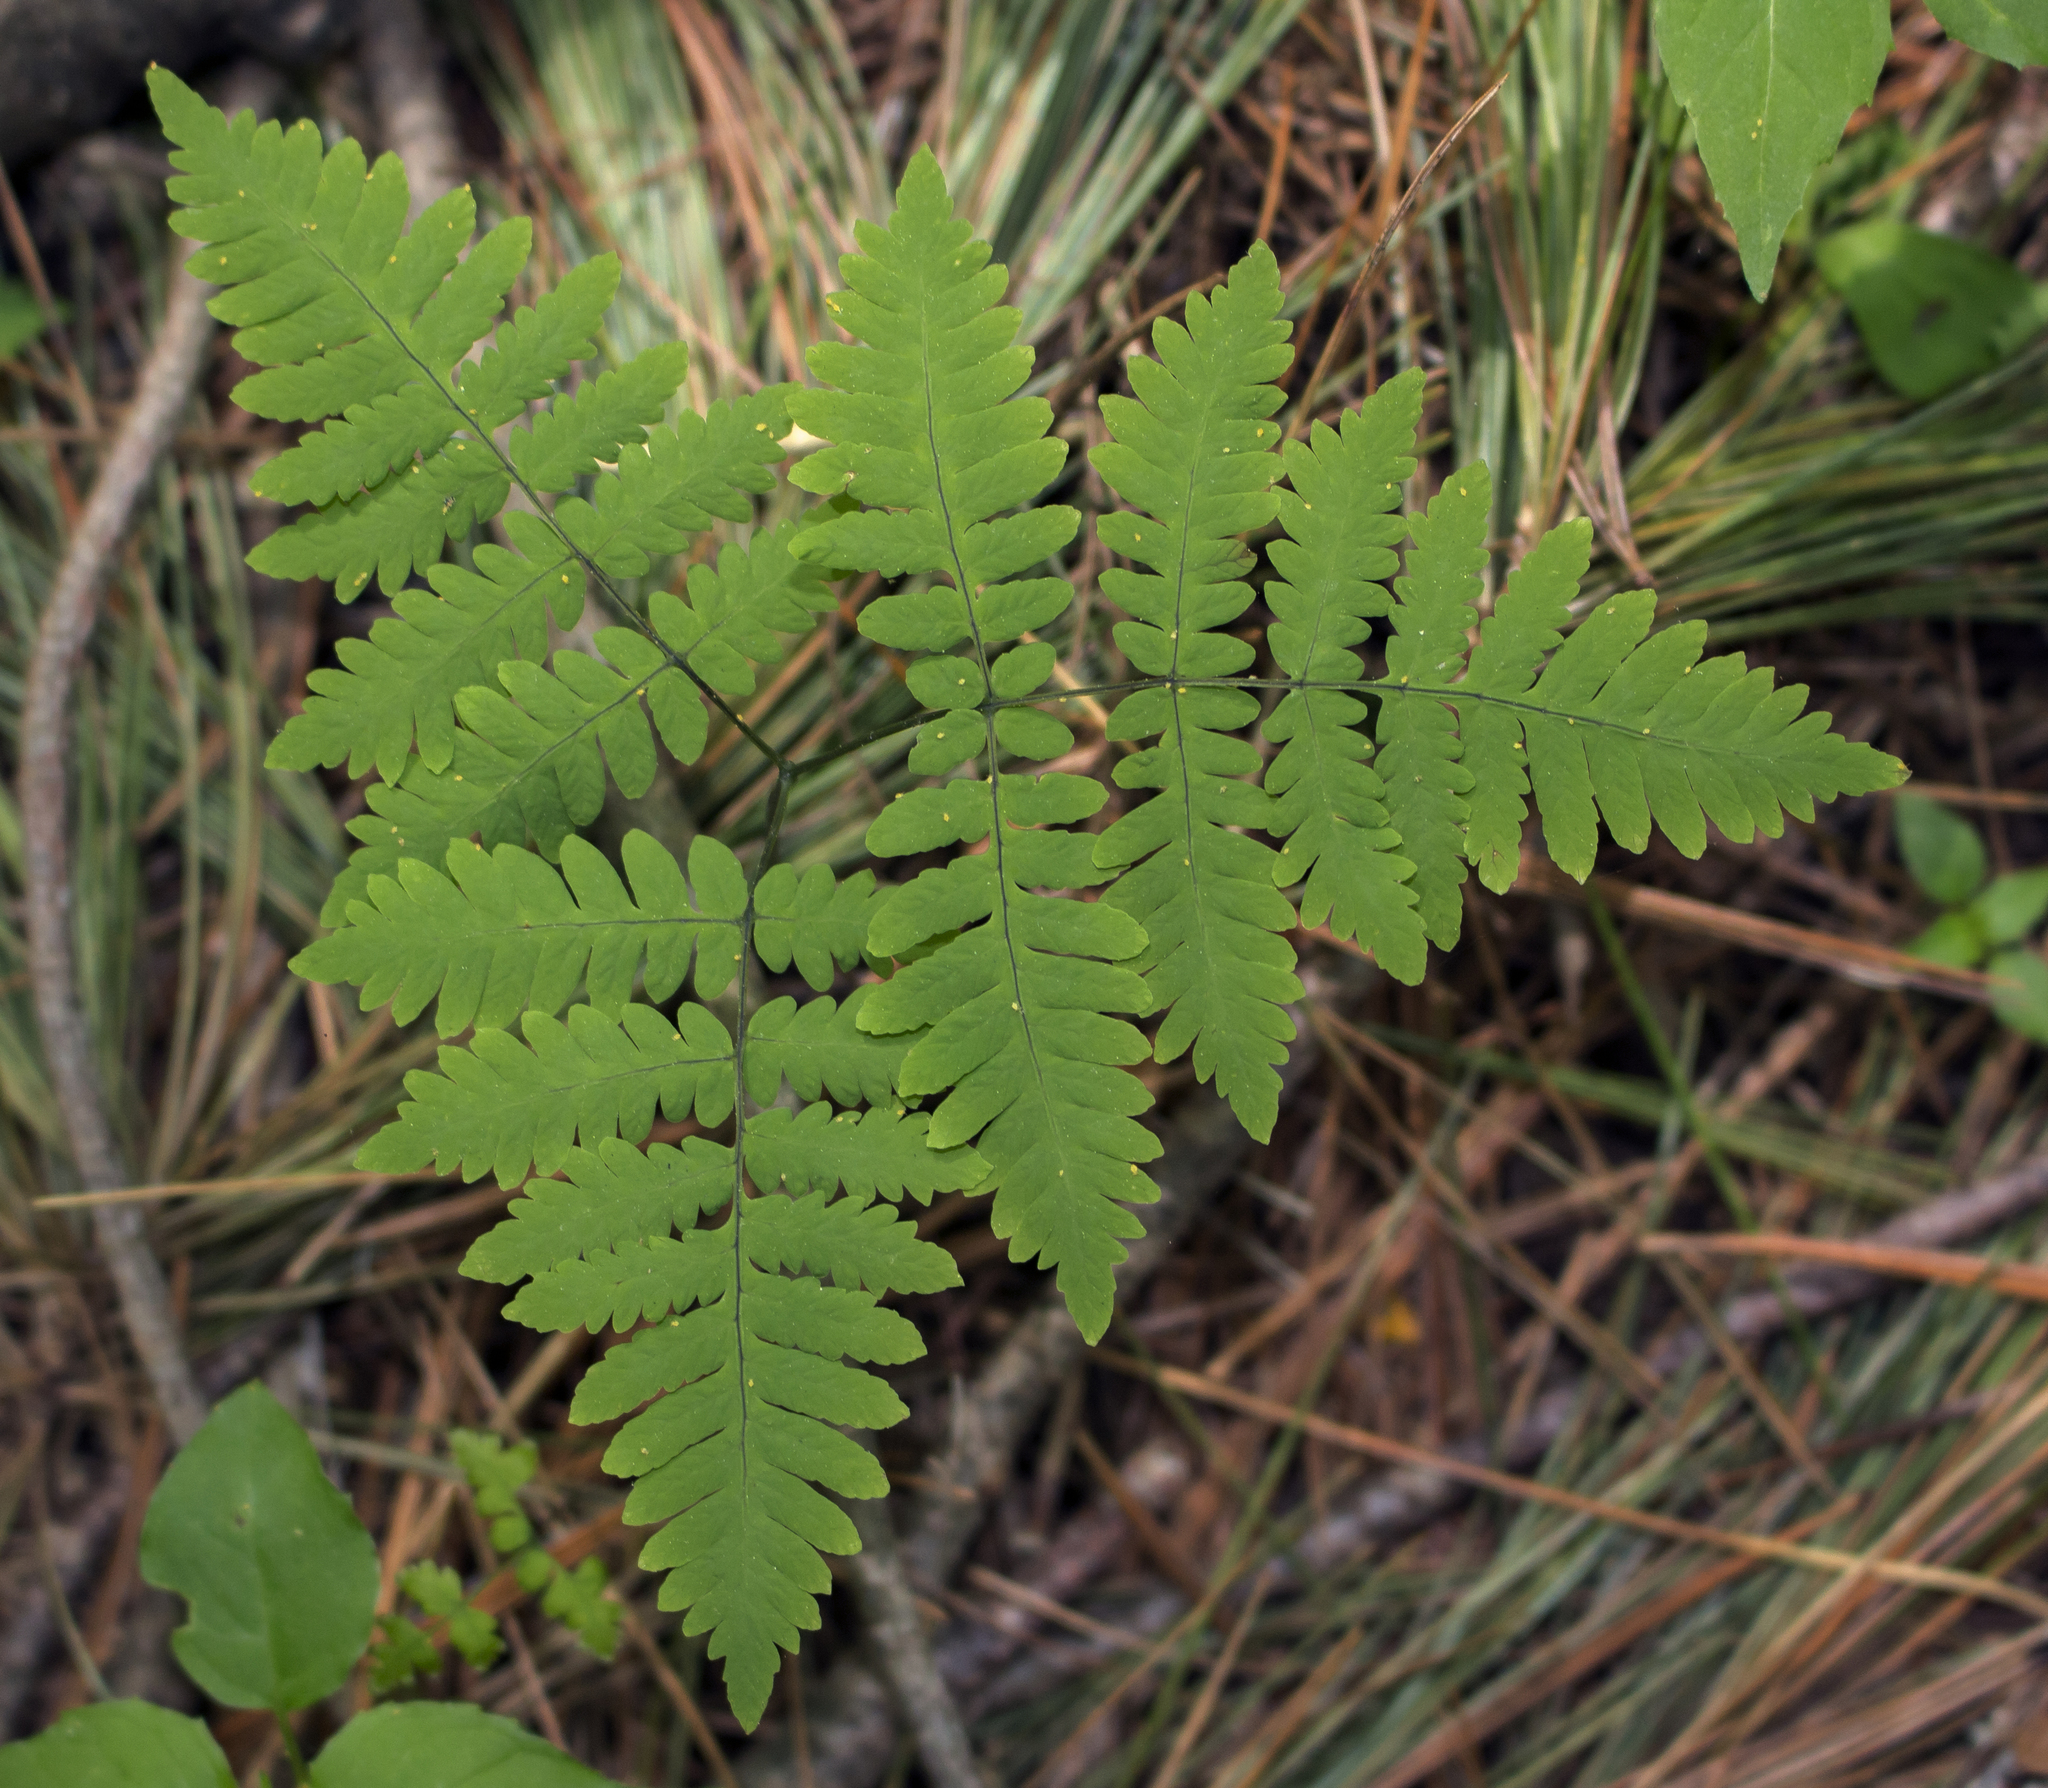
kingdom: Plantae
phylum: Tracheophyta
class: Polypodiopsida
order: Polypodiales
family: Cystopteridaceae
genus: Gymnocarpium
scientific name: Gymnocarpium dryopteris
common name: Oak fern
